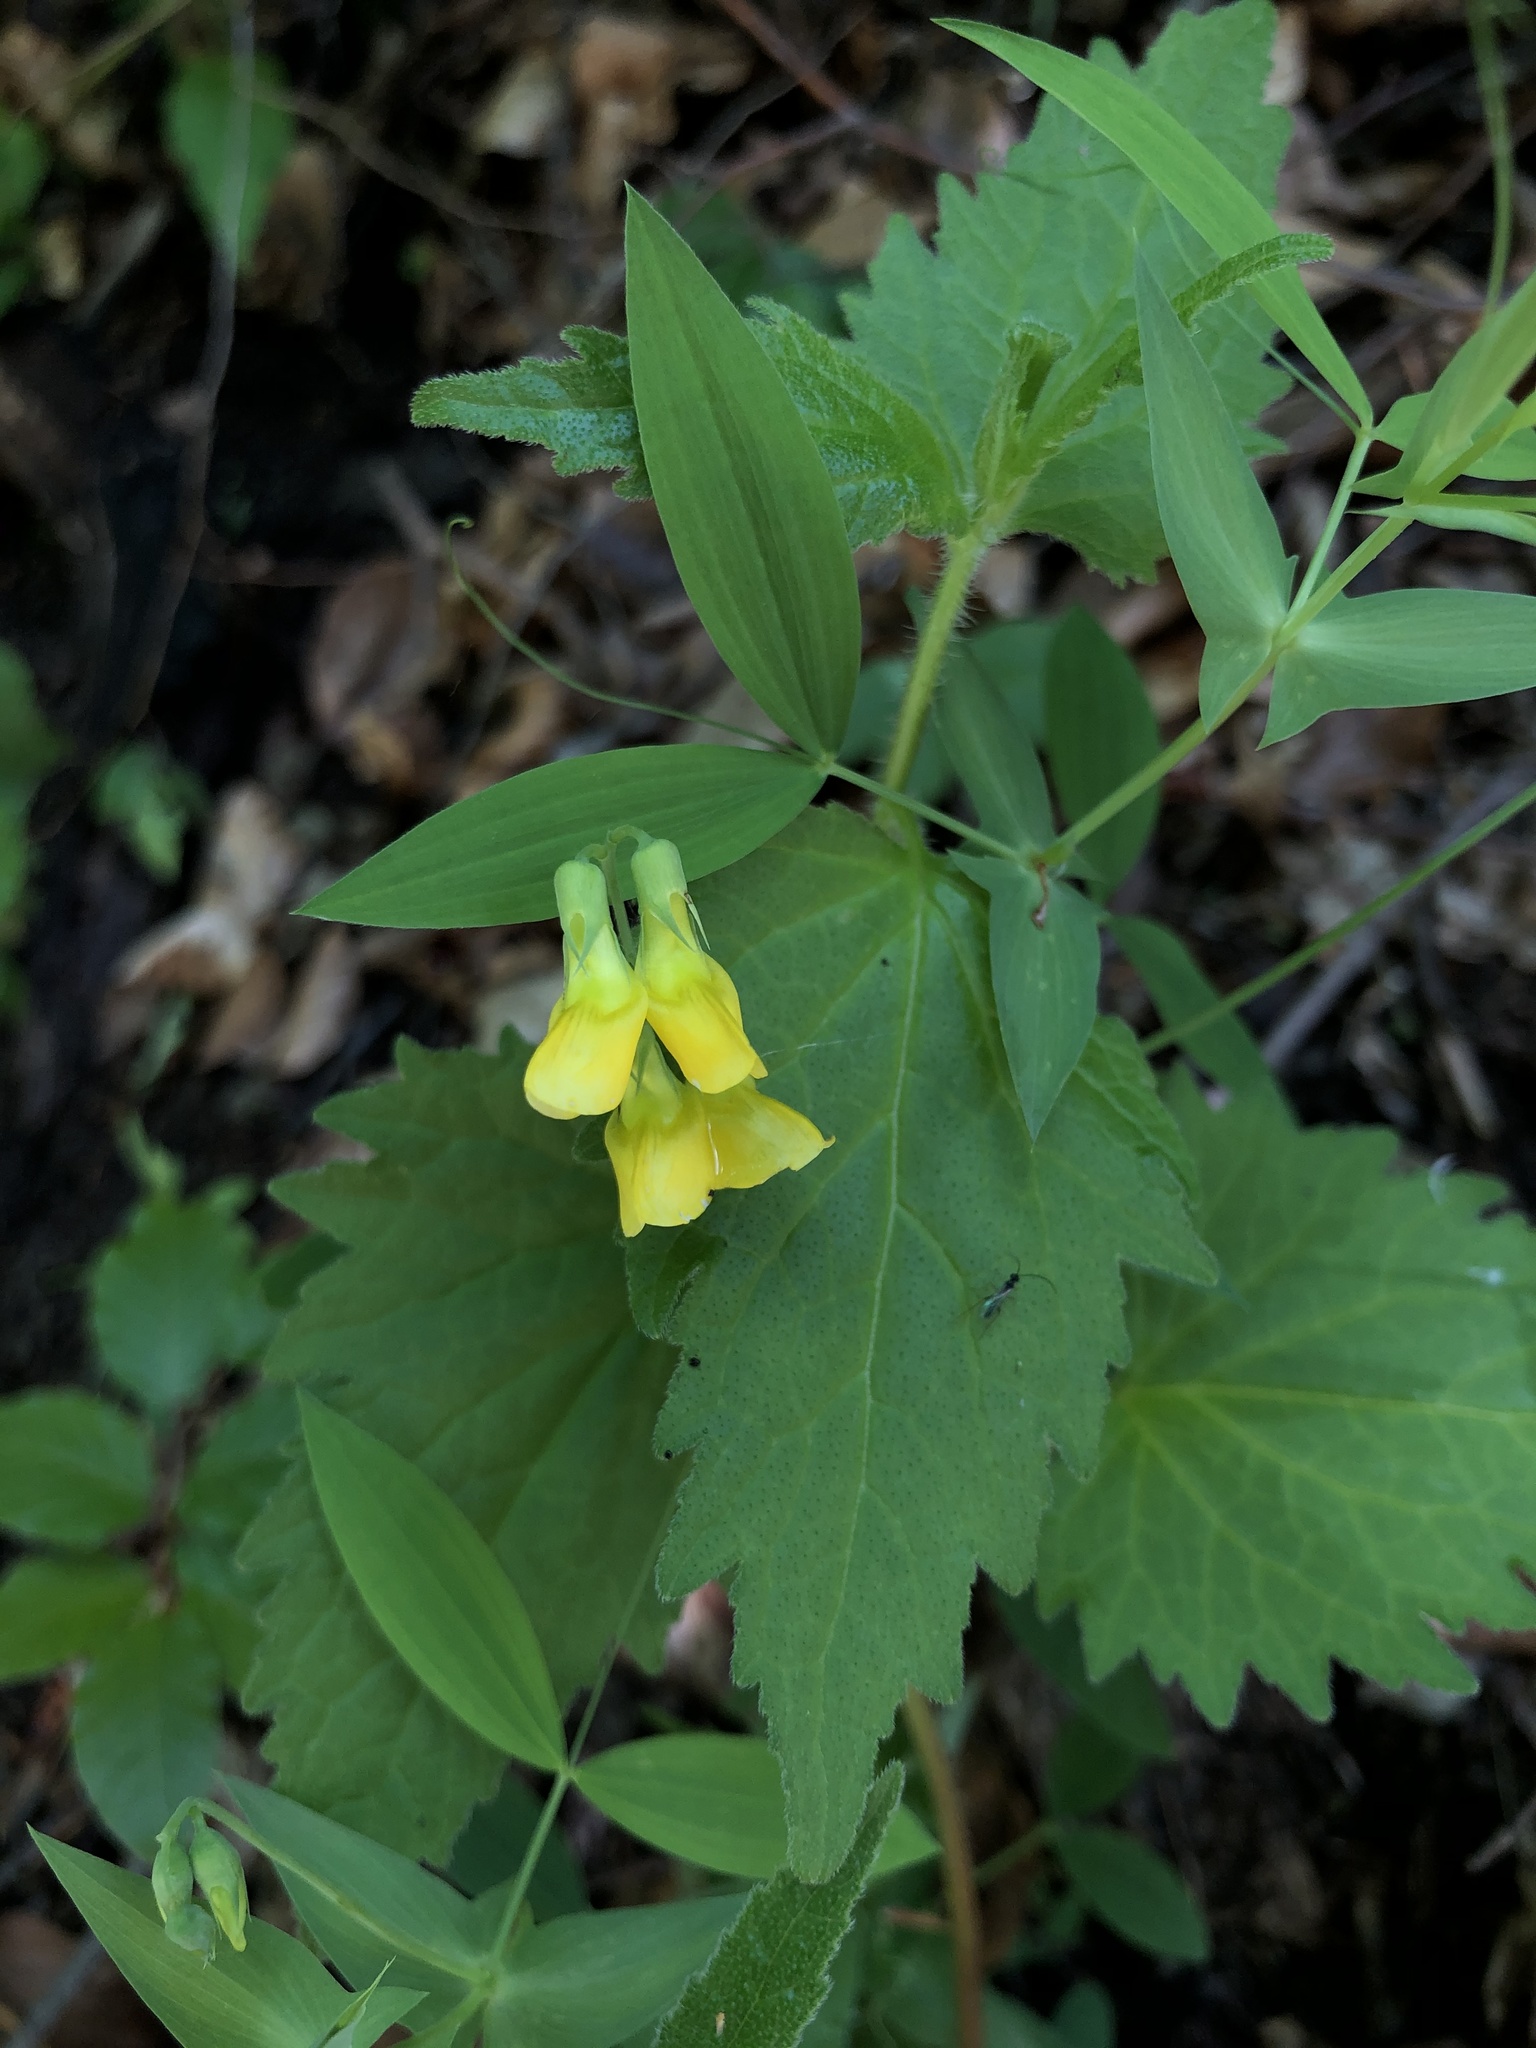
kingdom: Plantae
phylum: Tracheophyta
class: Magnoliopsida
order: Fabales
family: Fabaceae
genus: Lathyrus
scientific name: Lathyrus hallersteinii
